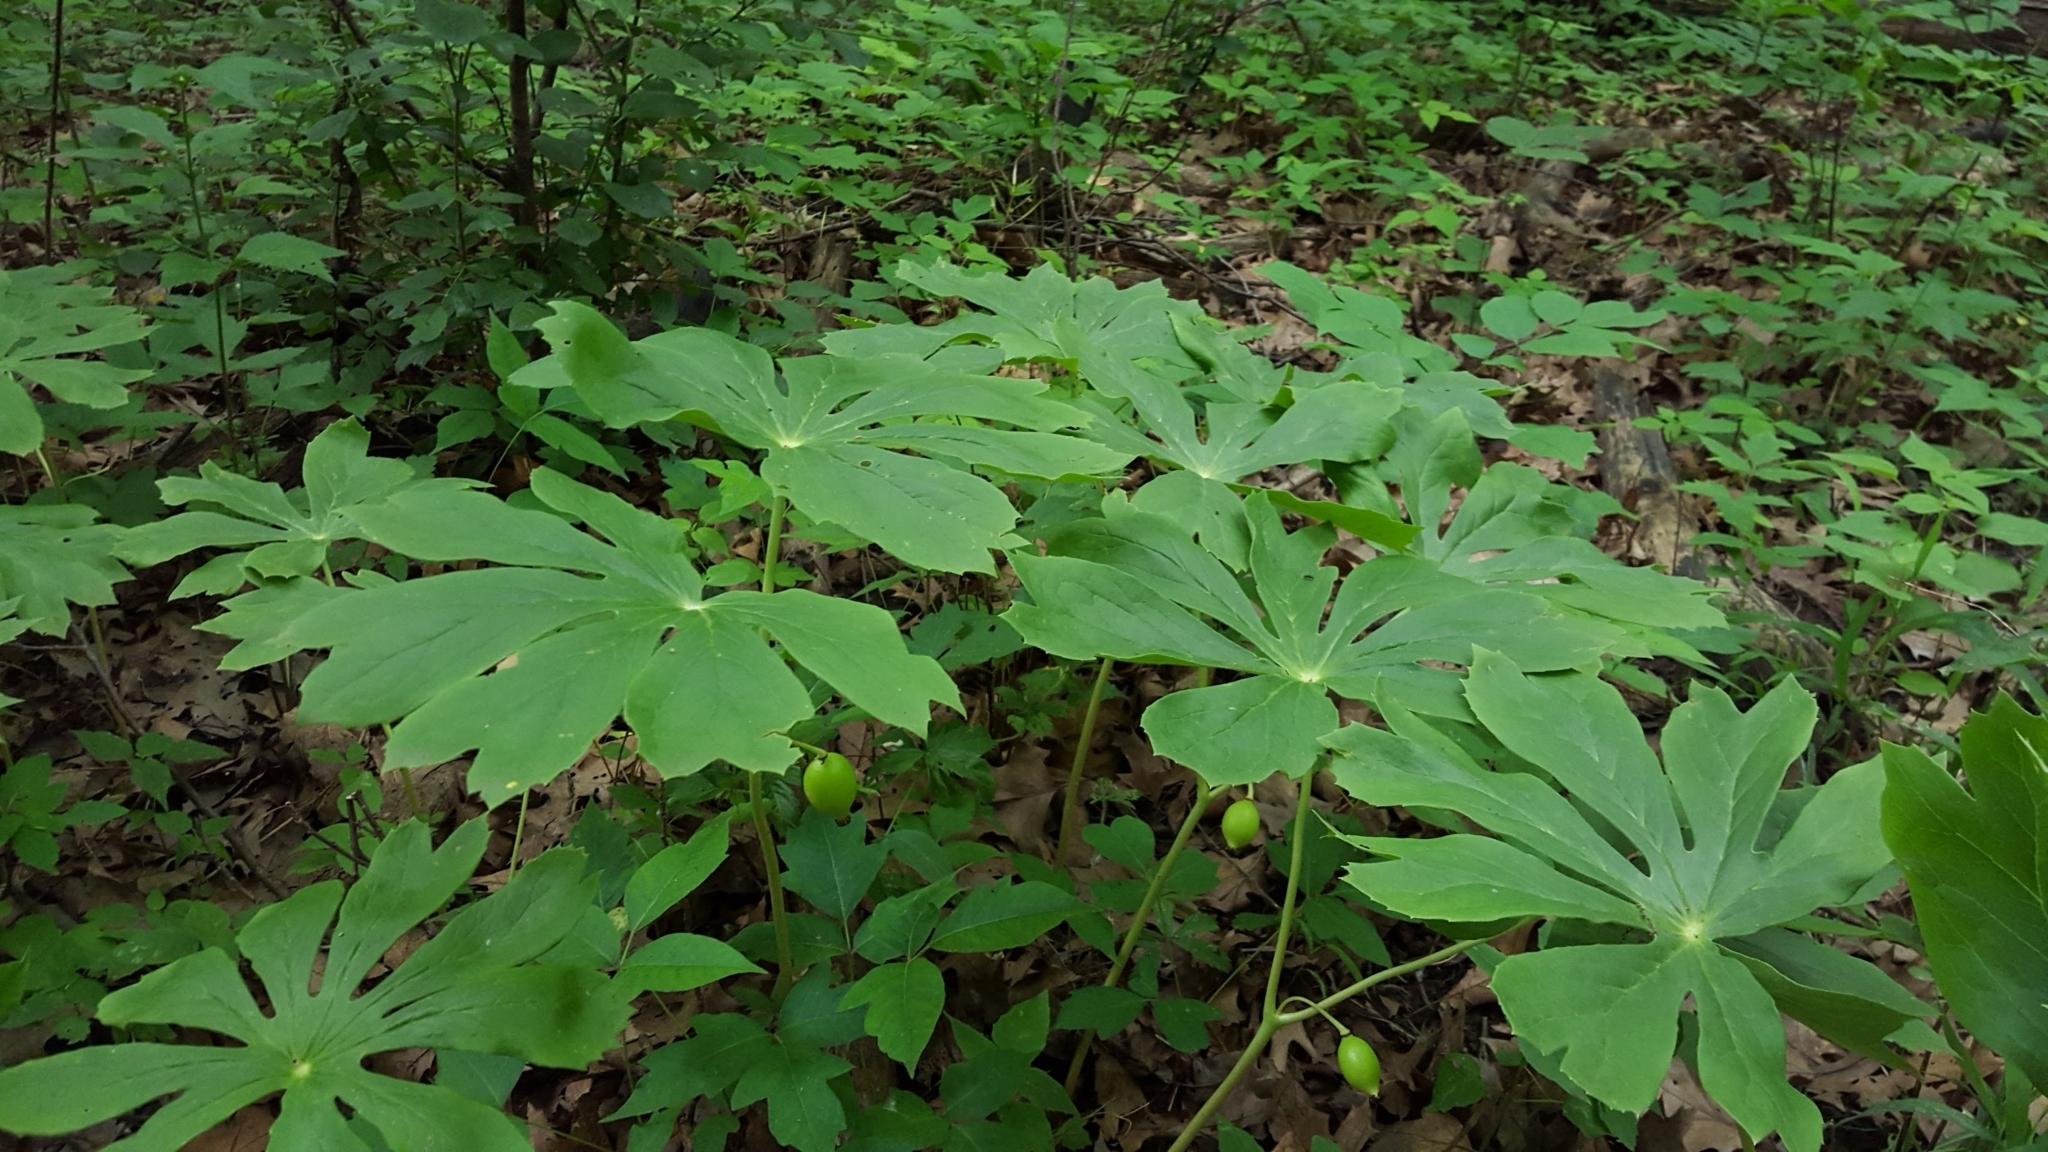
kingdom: Plantae
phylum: Tracheophyta
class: Magnoliopsida
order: Ranunculales
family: Berberidaceae
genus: Podophyllum
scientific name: Podophyllum peltatum
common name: Wild mandrake
